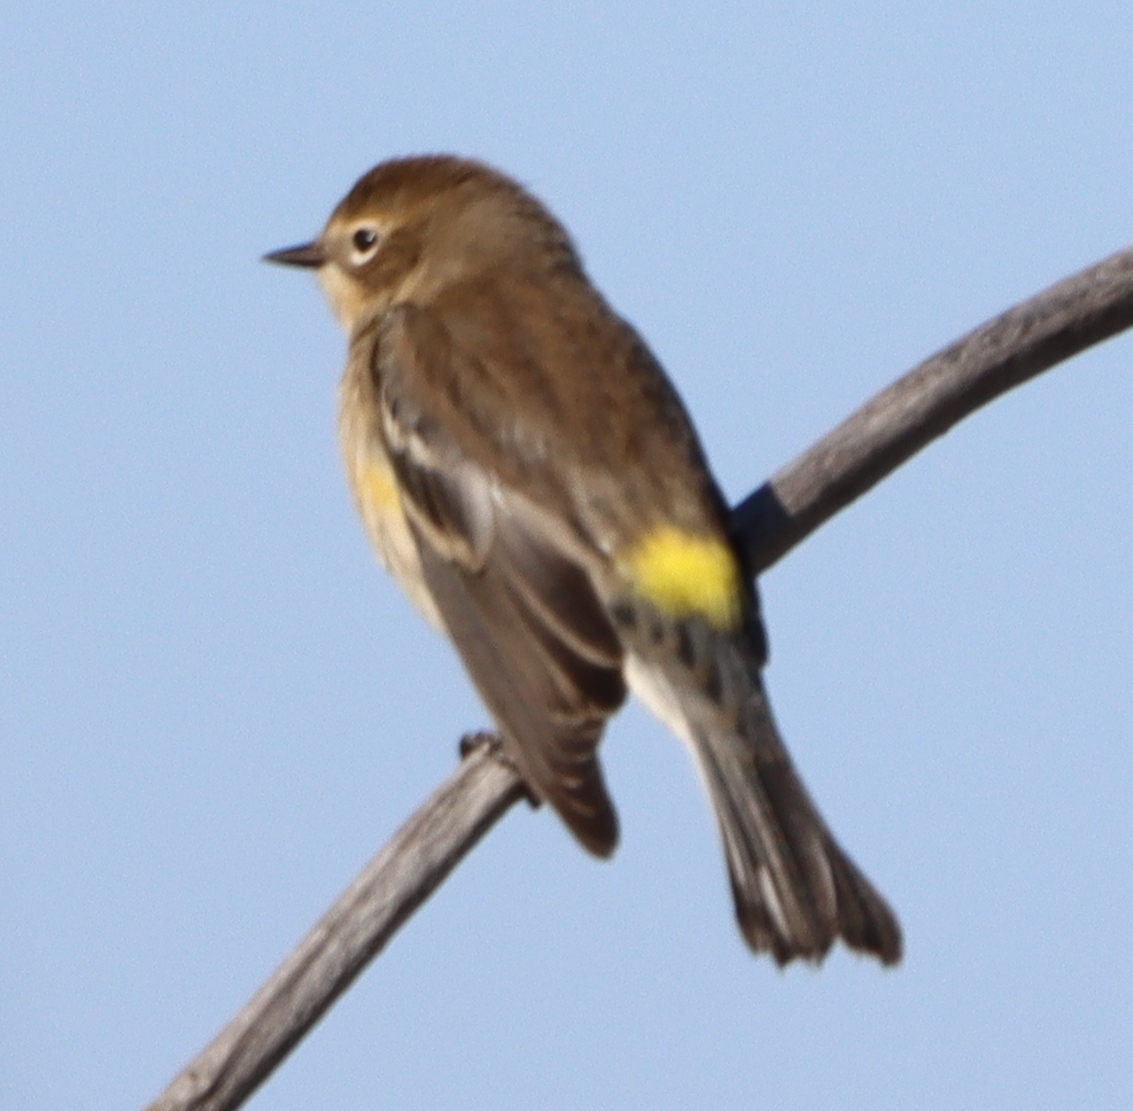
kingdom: Animalia
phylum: Chordata
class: Aves
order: Passeriformes
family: Parulidae
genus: Setophaga
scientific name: Setophaga coronata
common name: Myrtle warbler
